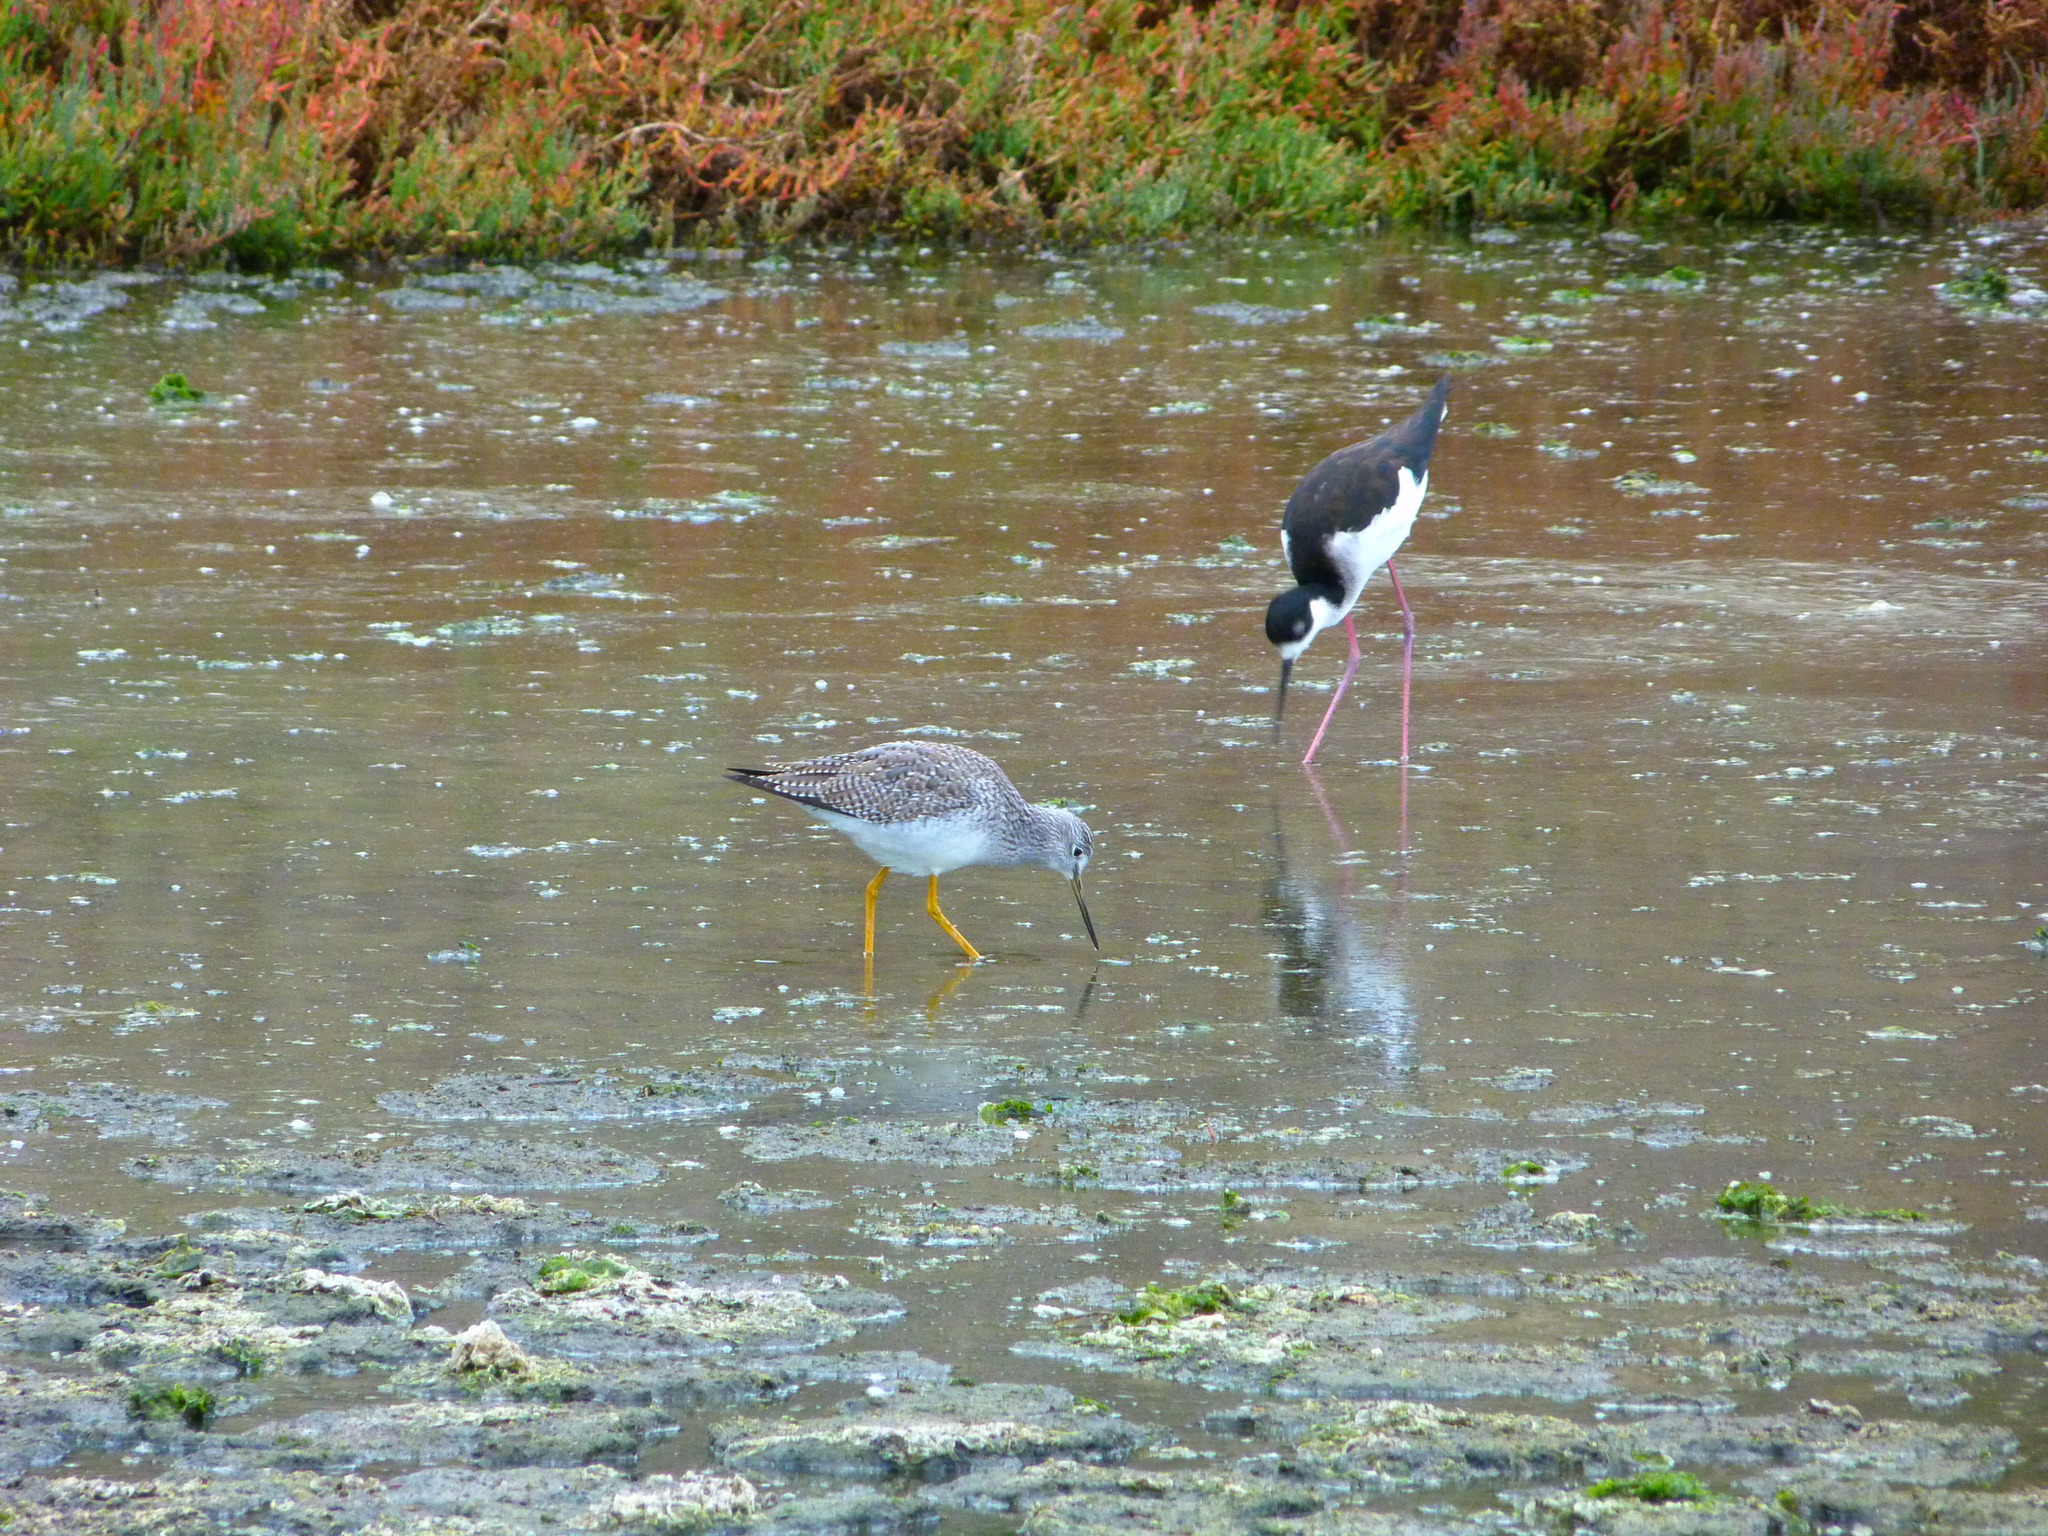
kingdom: Animalia
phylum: Chordata
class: Aves
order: Charadriiformes
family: Scolopacidae
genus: Tringa
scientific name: Tringa melanoleuca
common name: Greater yellowlegs
